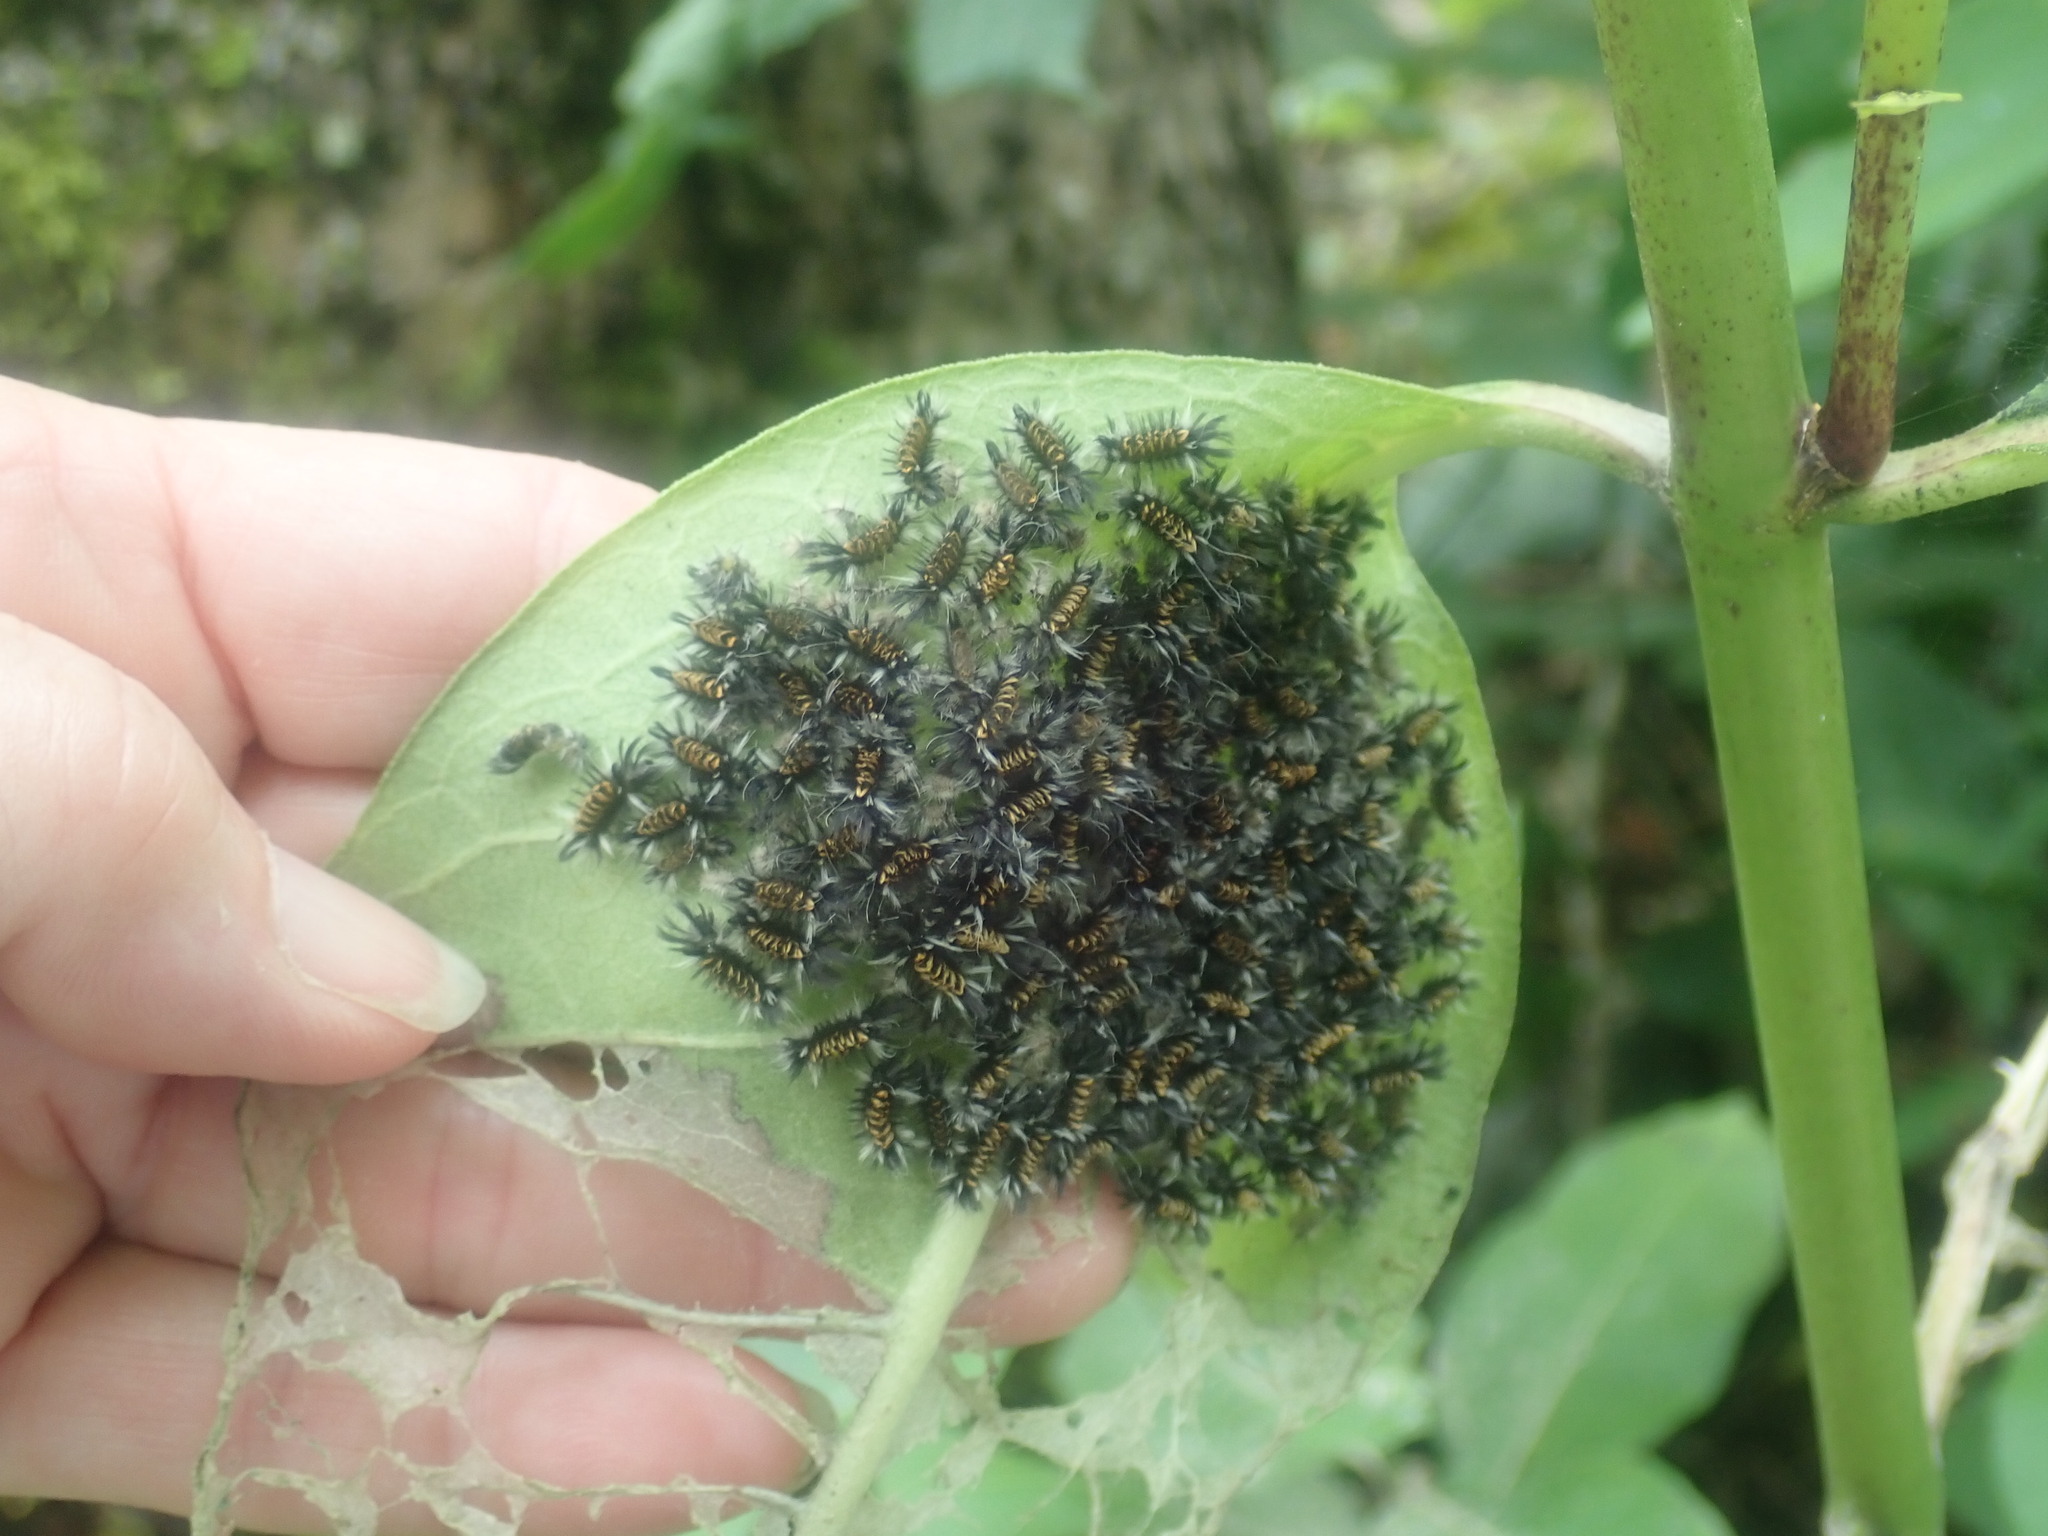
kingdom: Animalia
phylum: Arthropoda
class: Insecta
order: Lepidoptera
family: Erebidae
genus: Euchaetes
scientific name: Euchaetes egle
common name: Milkweed tussock moth
